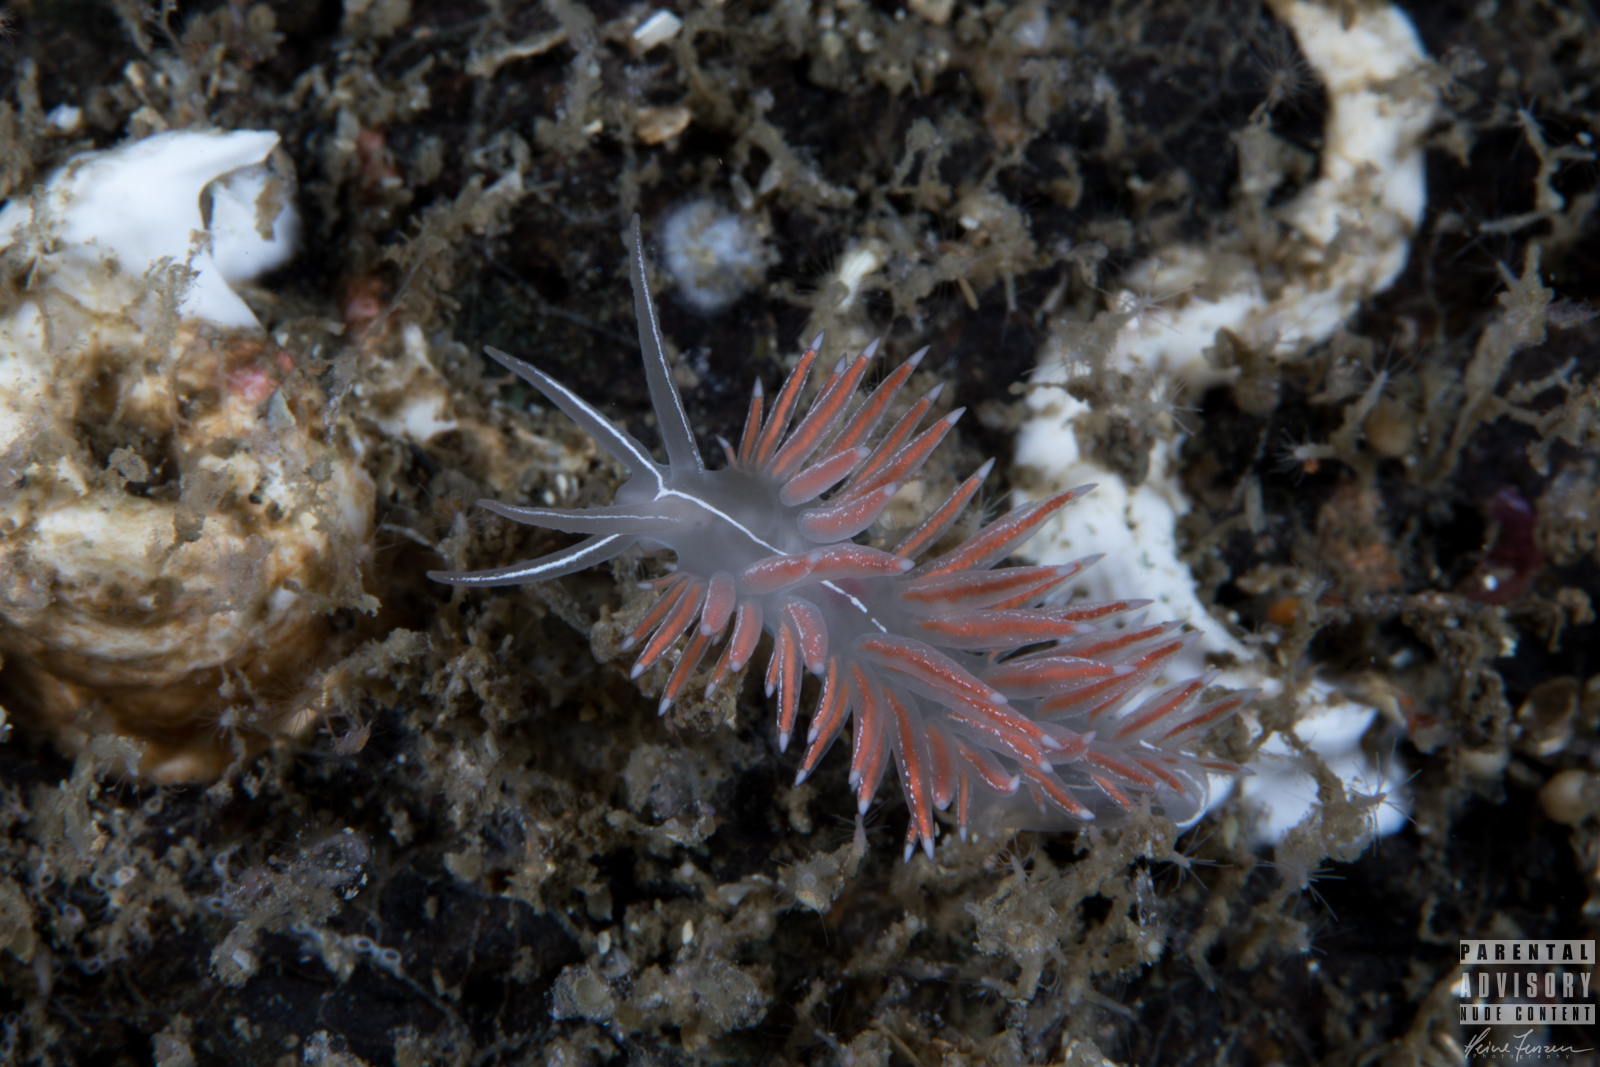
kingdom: Animalia
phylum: Mollusca
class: Gastropoda
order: Nudibranchia
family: Coryphellidae
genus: Coryphella
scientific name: Coryphella chriskaugei
